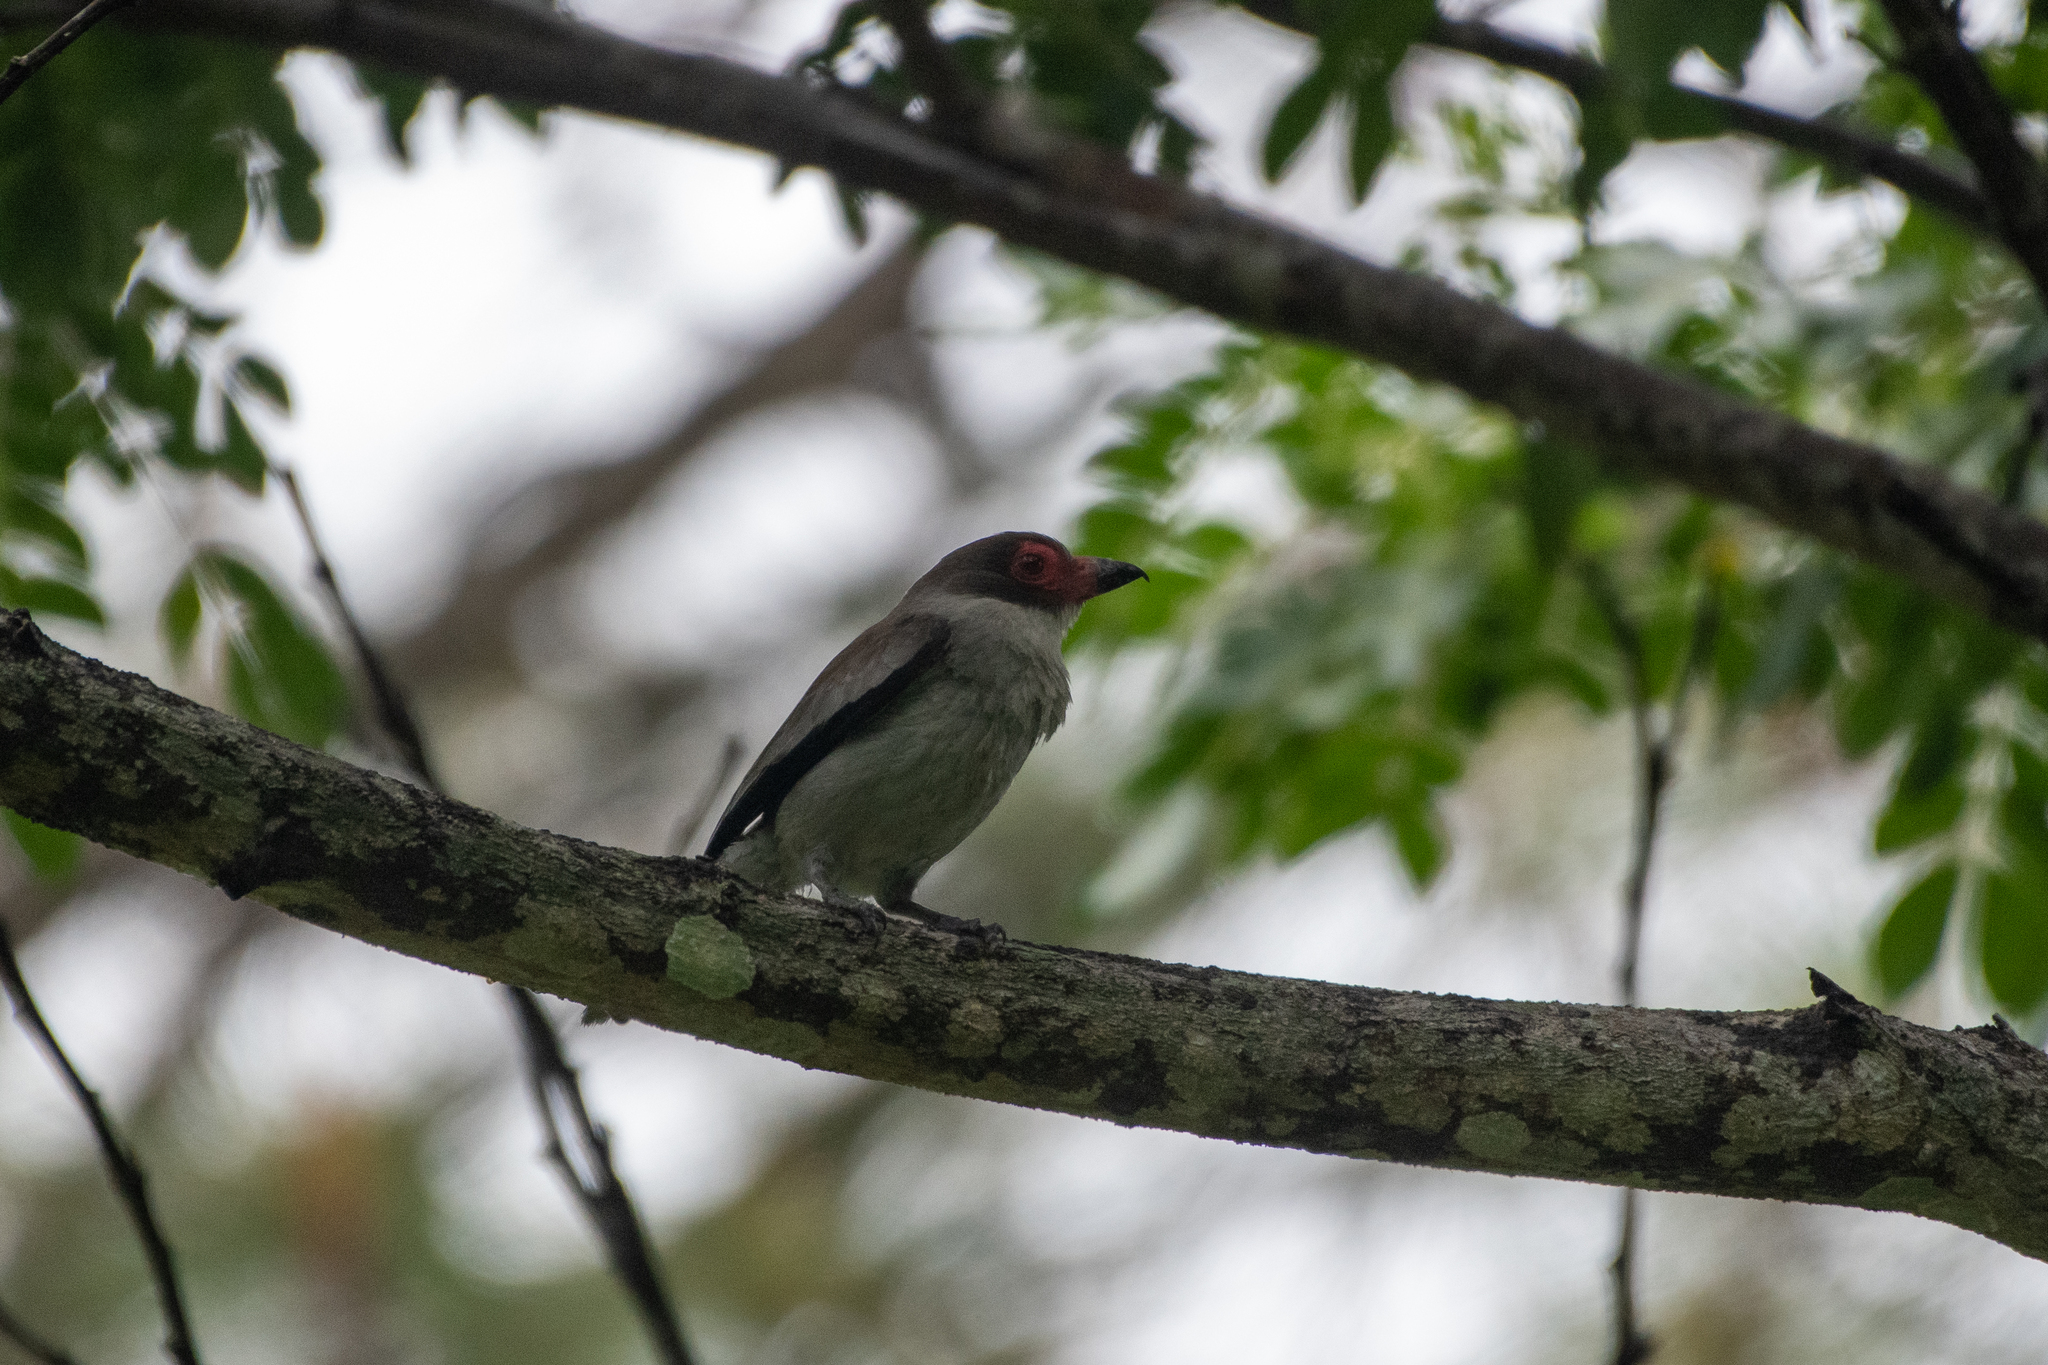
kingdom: Animalia
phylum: Chordata
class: Aves
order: Passeriformes
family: Cotingidae
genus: Tityra
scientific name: Tityra semifasciata
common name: Masked tityra
